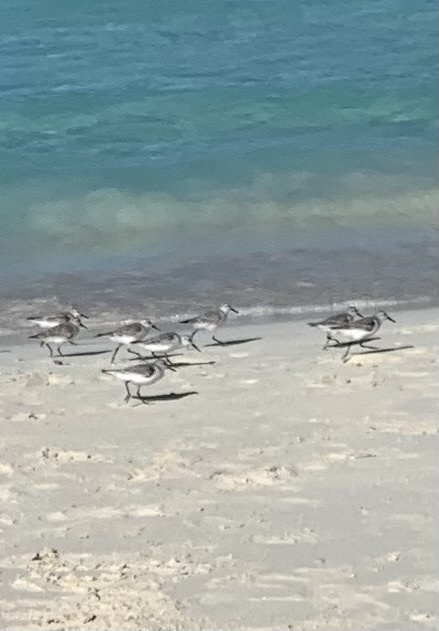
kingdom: Animalia
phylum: Chordata
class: Aves
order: Charadriiformes
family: Scolopacidae
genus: Calidris
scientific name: Calidris alba
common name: Sanderling
